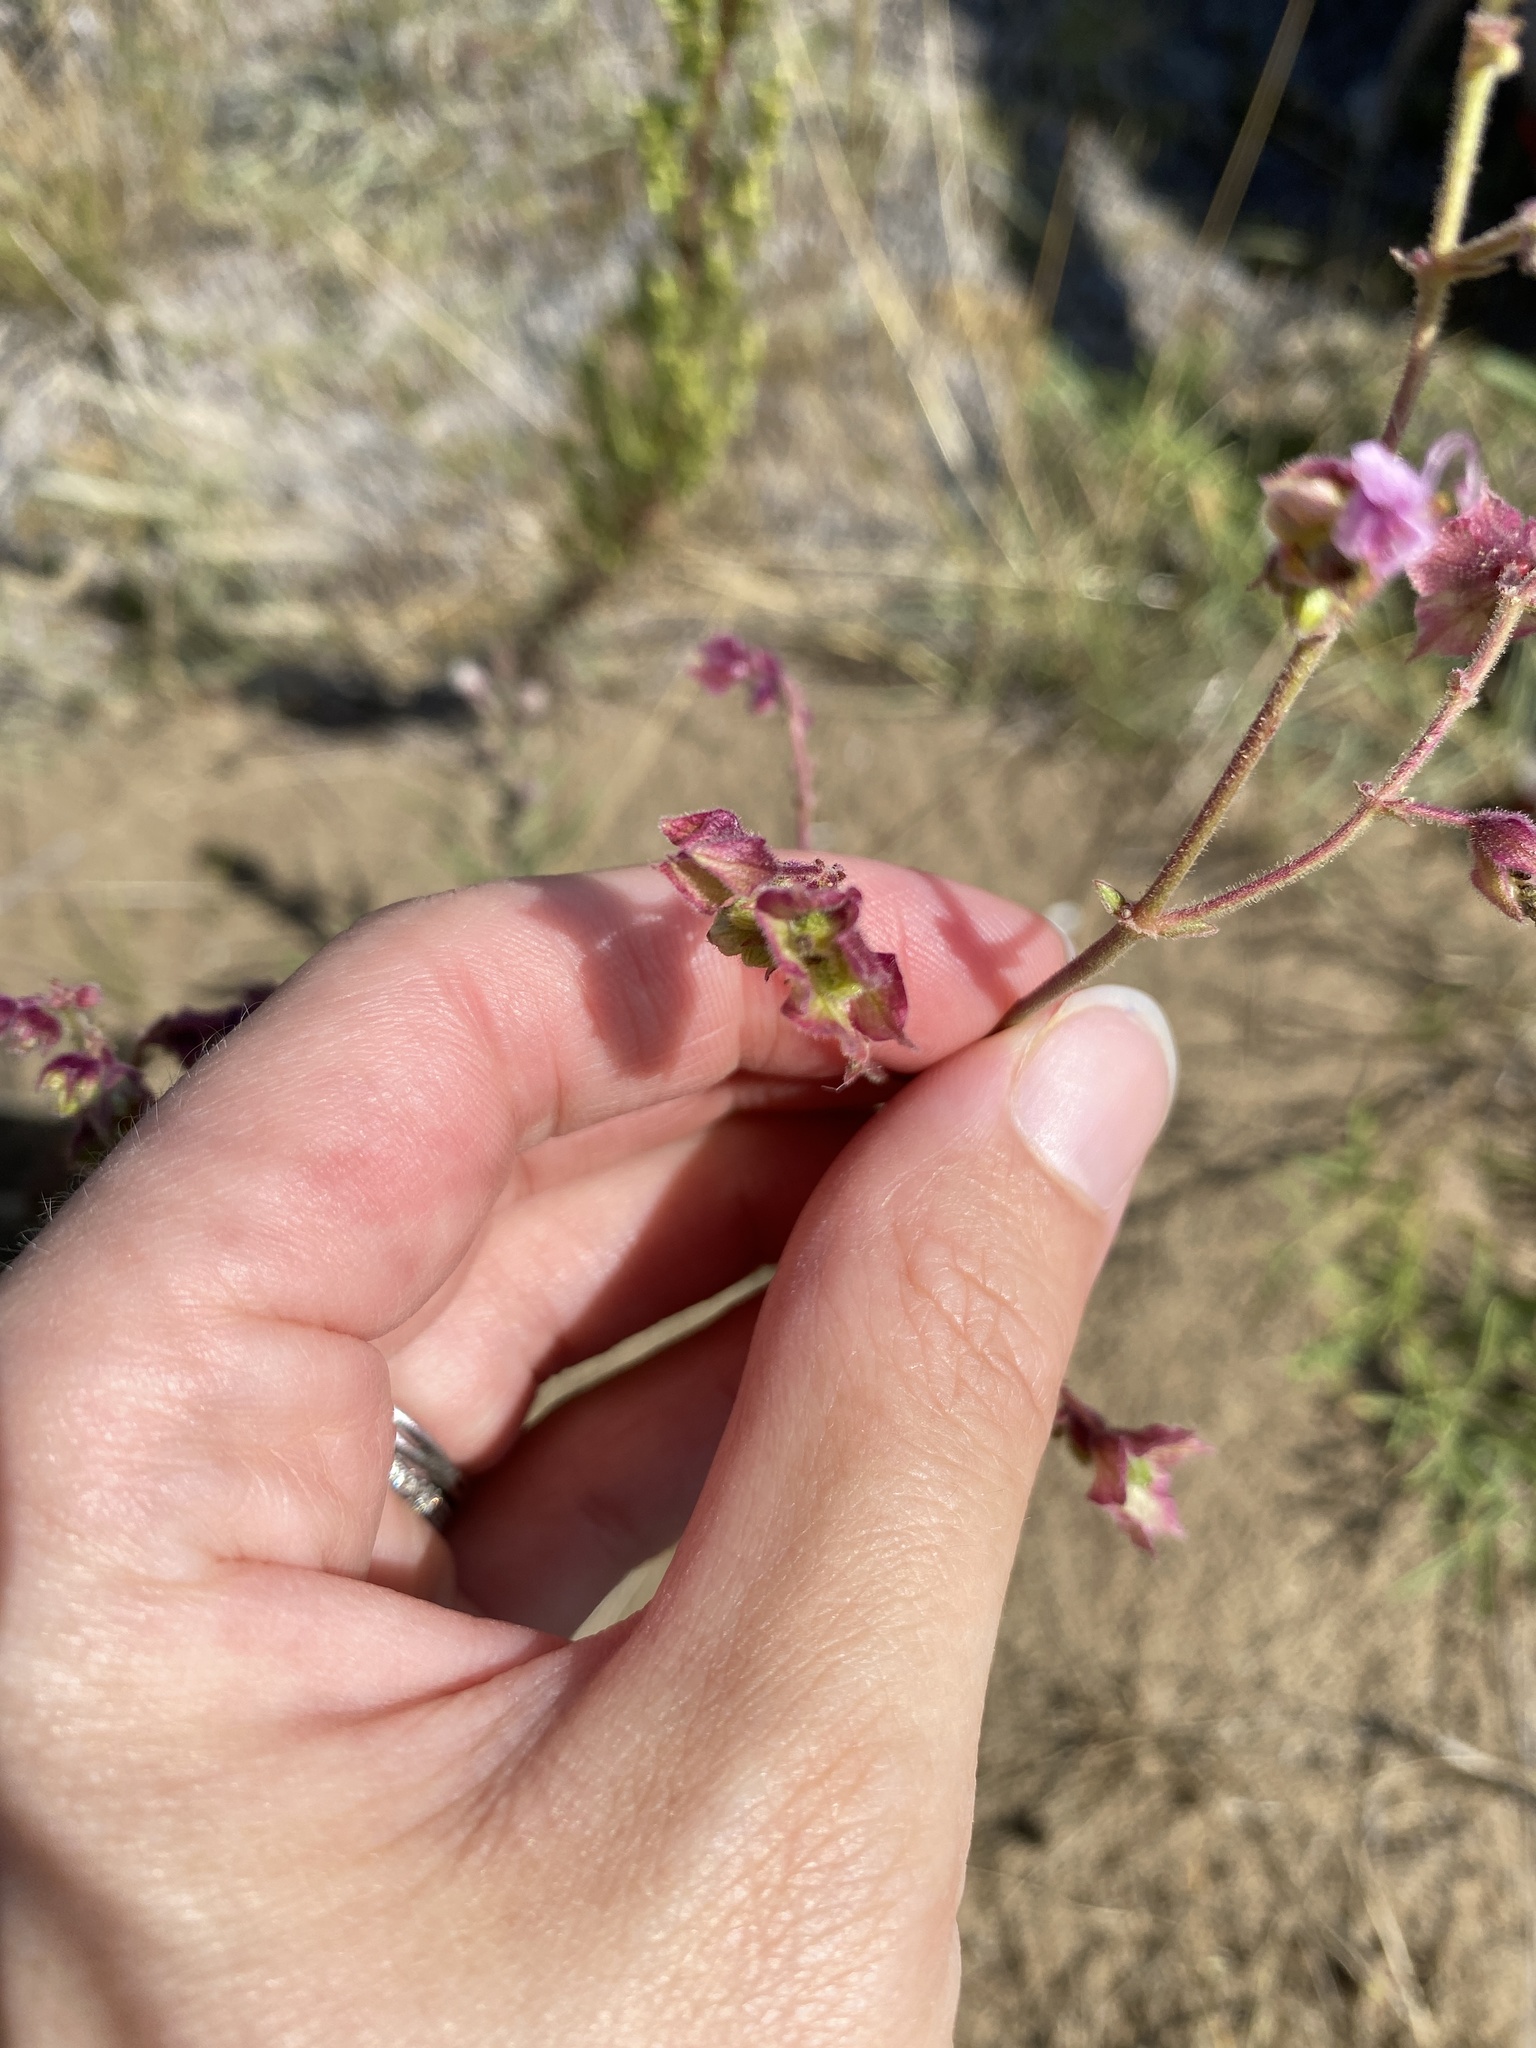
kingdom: Plantae
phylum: Tracheophyta
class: Magnoliopsida
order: Caryophyllales
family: Nyctaginaceae
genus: Mirabilis
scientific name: Mirabilis albida
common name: Hairy four-o'clock
